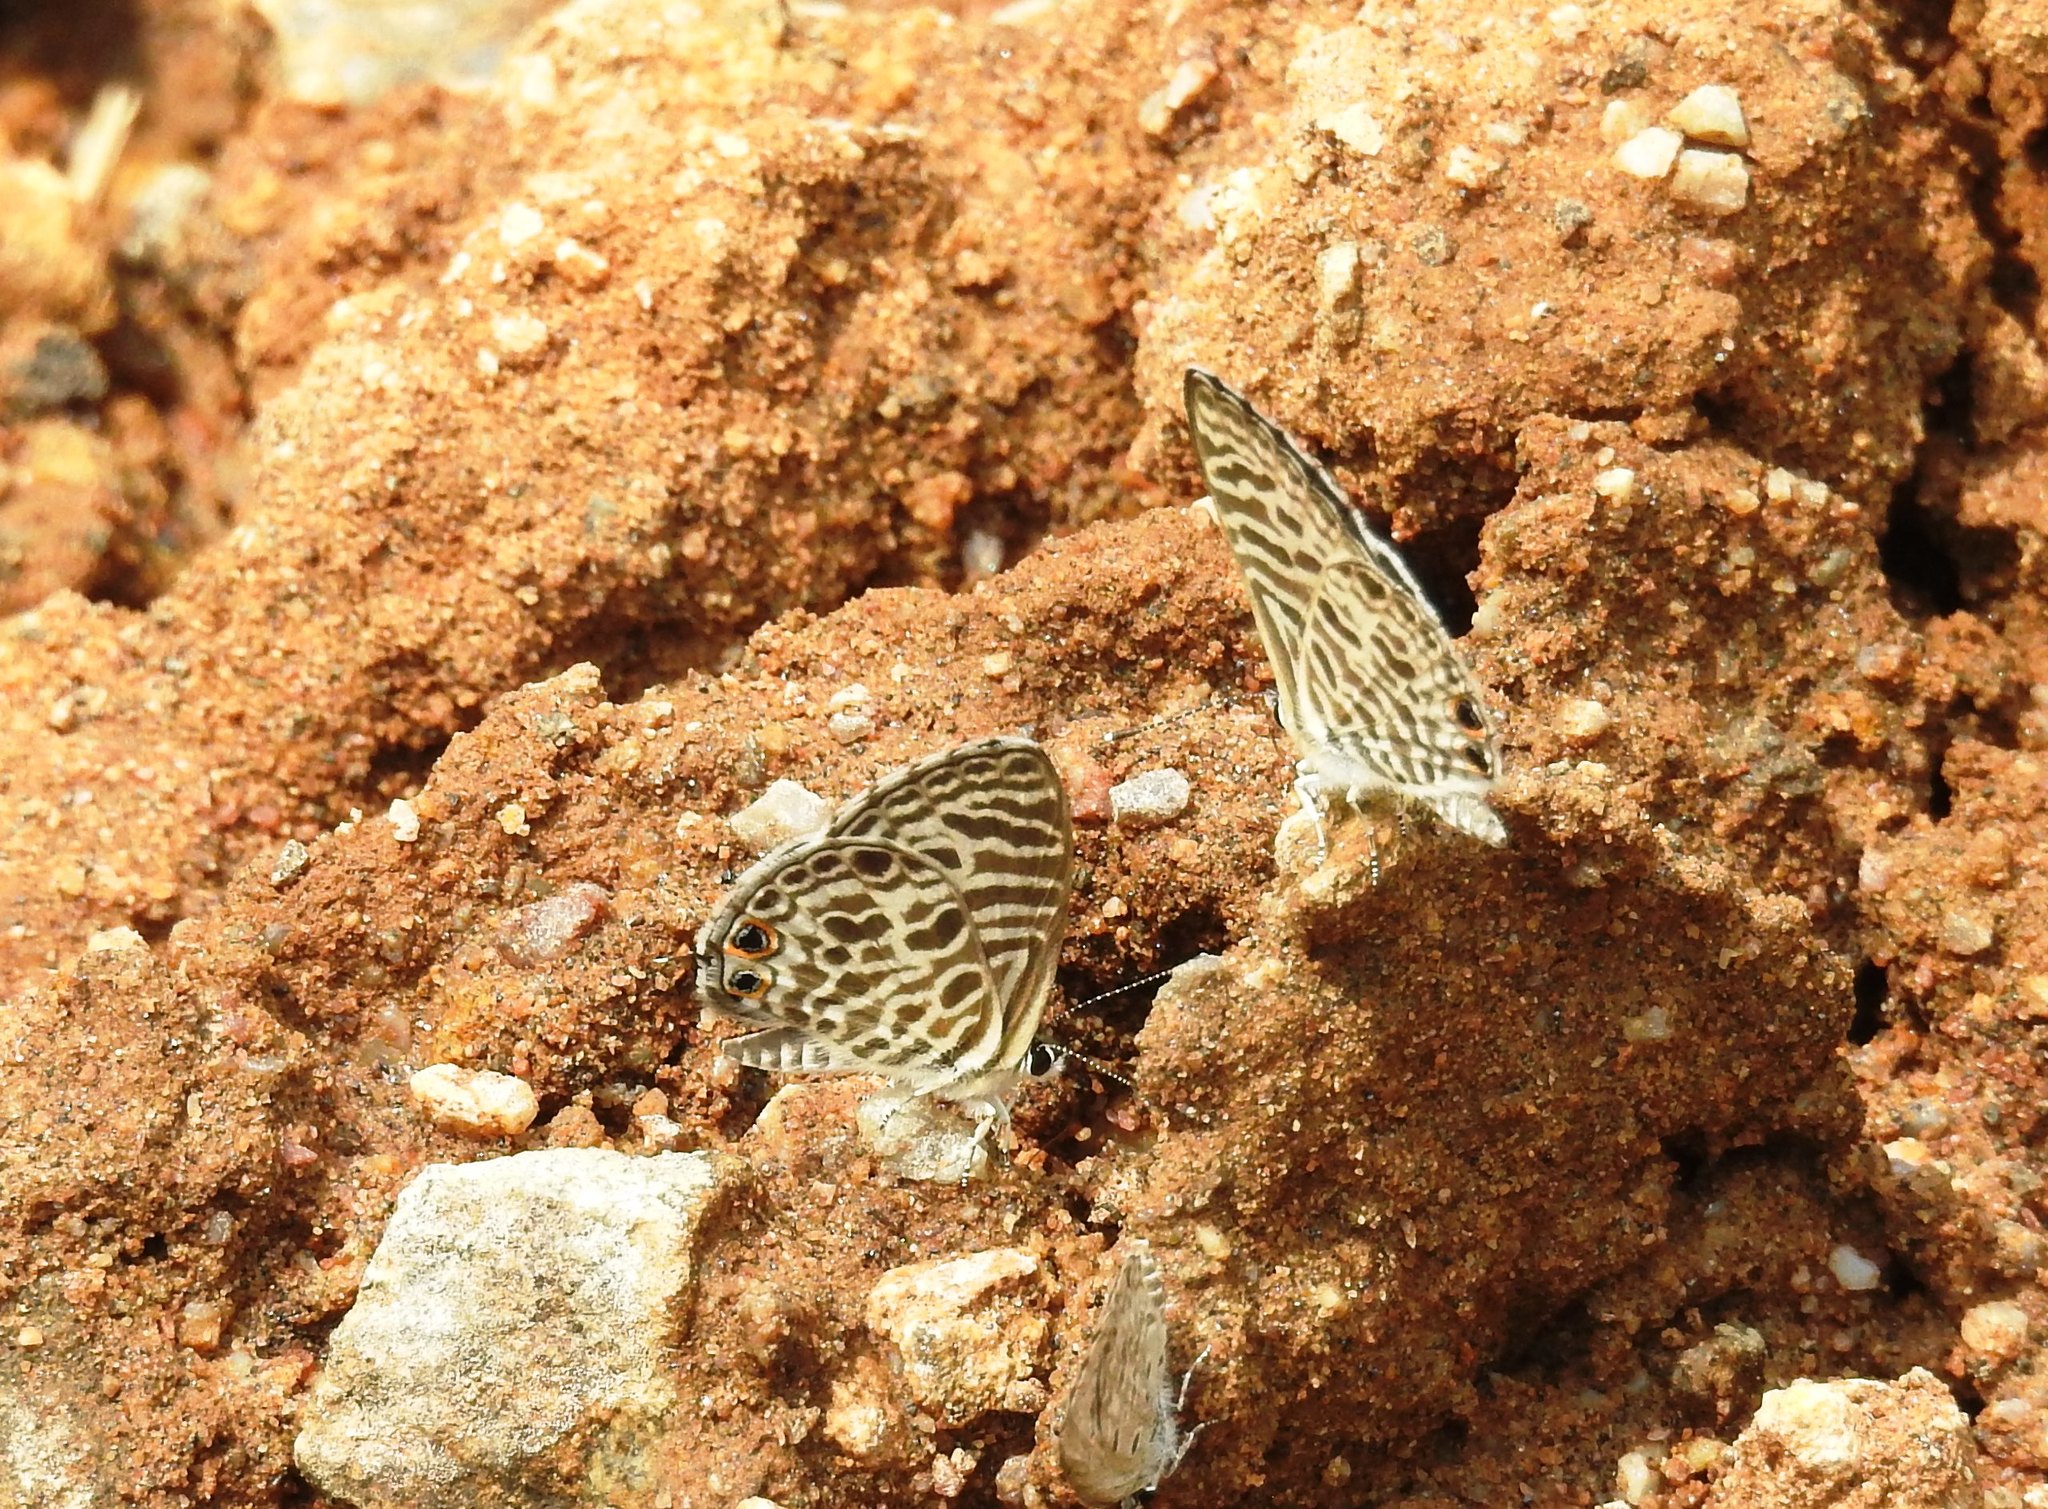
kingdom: Animalia
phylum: Arthropoda
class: Insecta
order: Lepidoptera
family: Lycaenidae
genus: Leptotes
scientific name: Leptotes plinius
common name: Zebra blue
